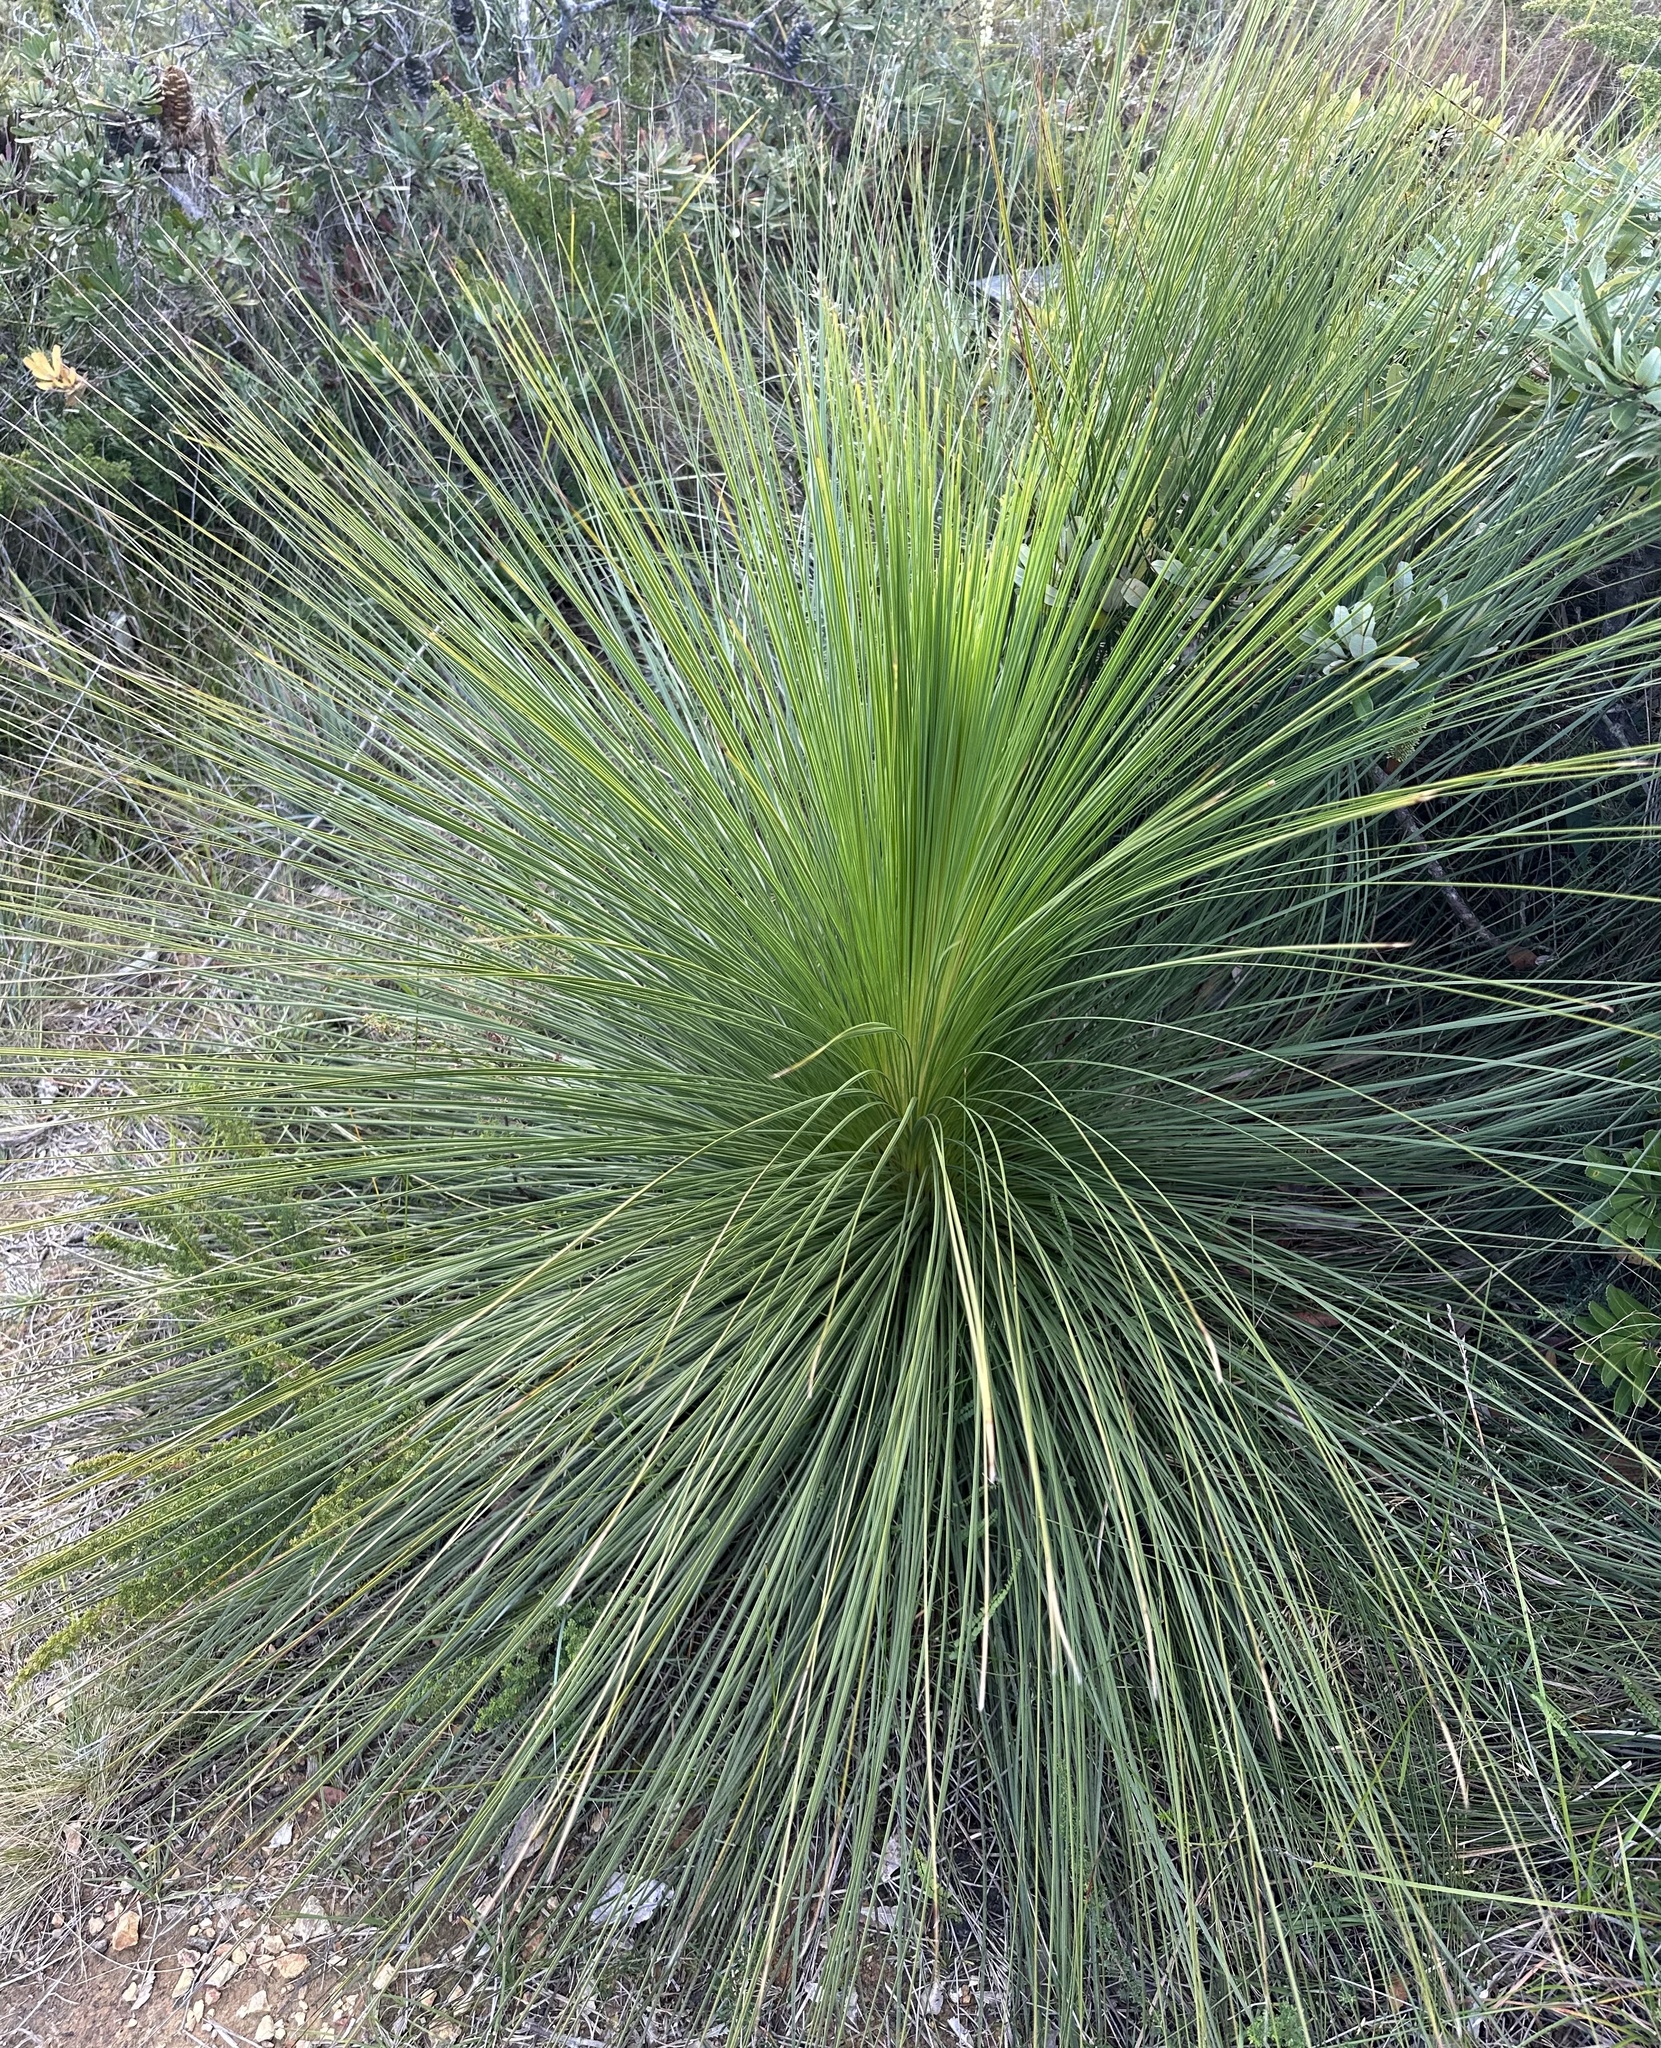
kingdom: Plantae
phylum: Tracheophyta
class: Liliopsida
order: Asparagales
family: Asphodelaceae
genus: Xanthorrhoea
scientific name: Xanthorrhoea johnsonii
